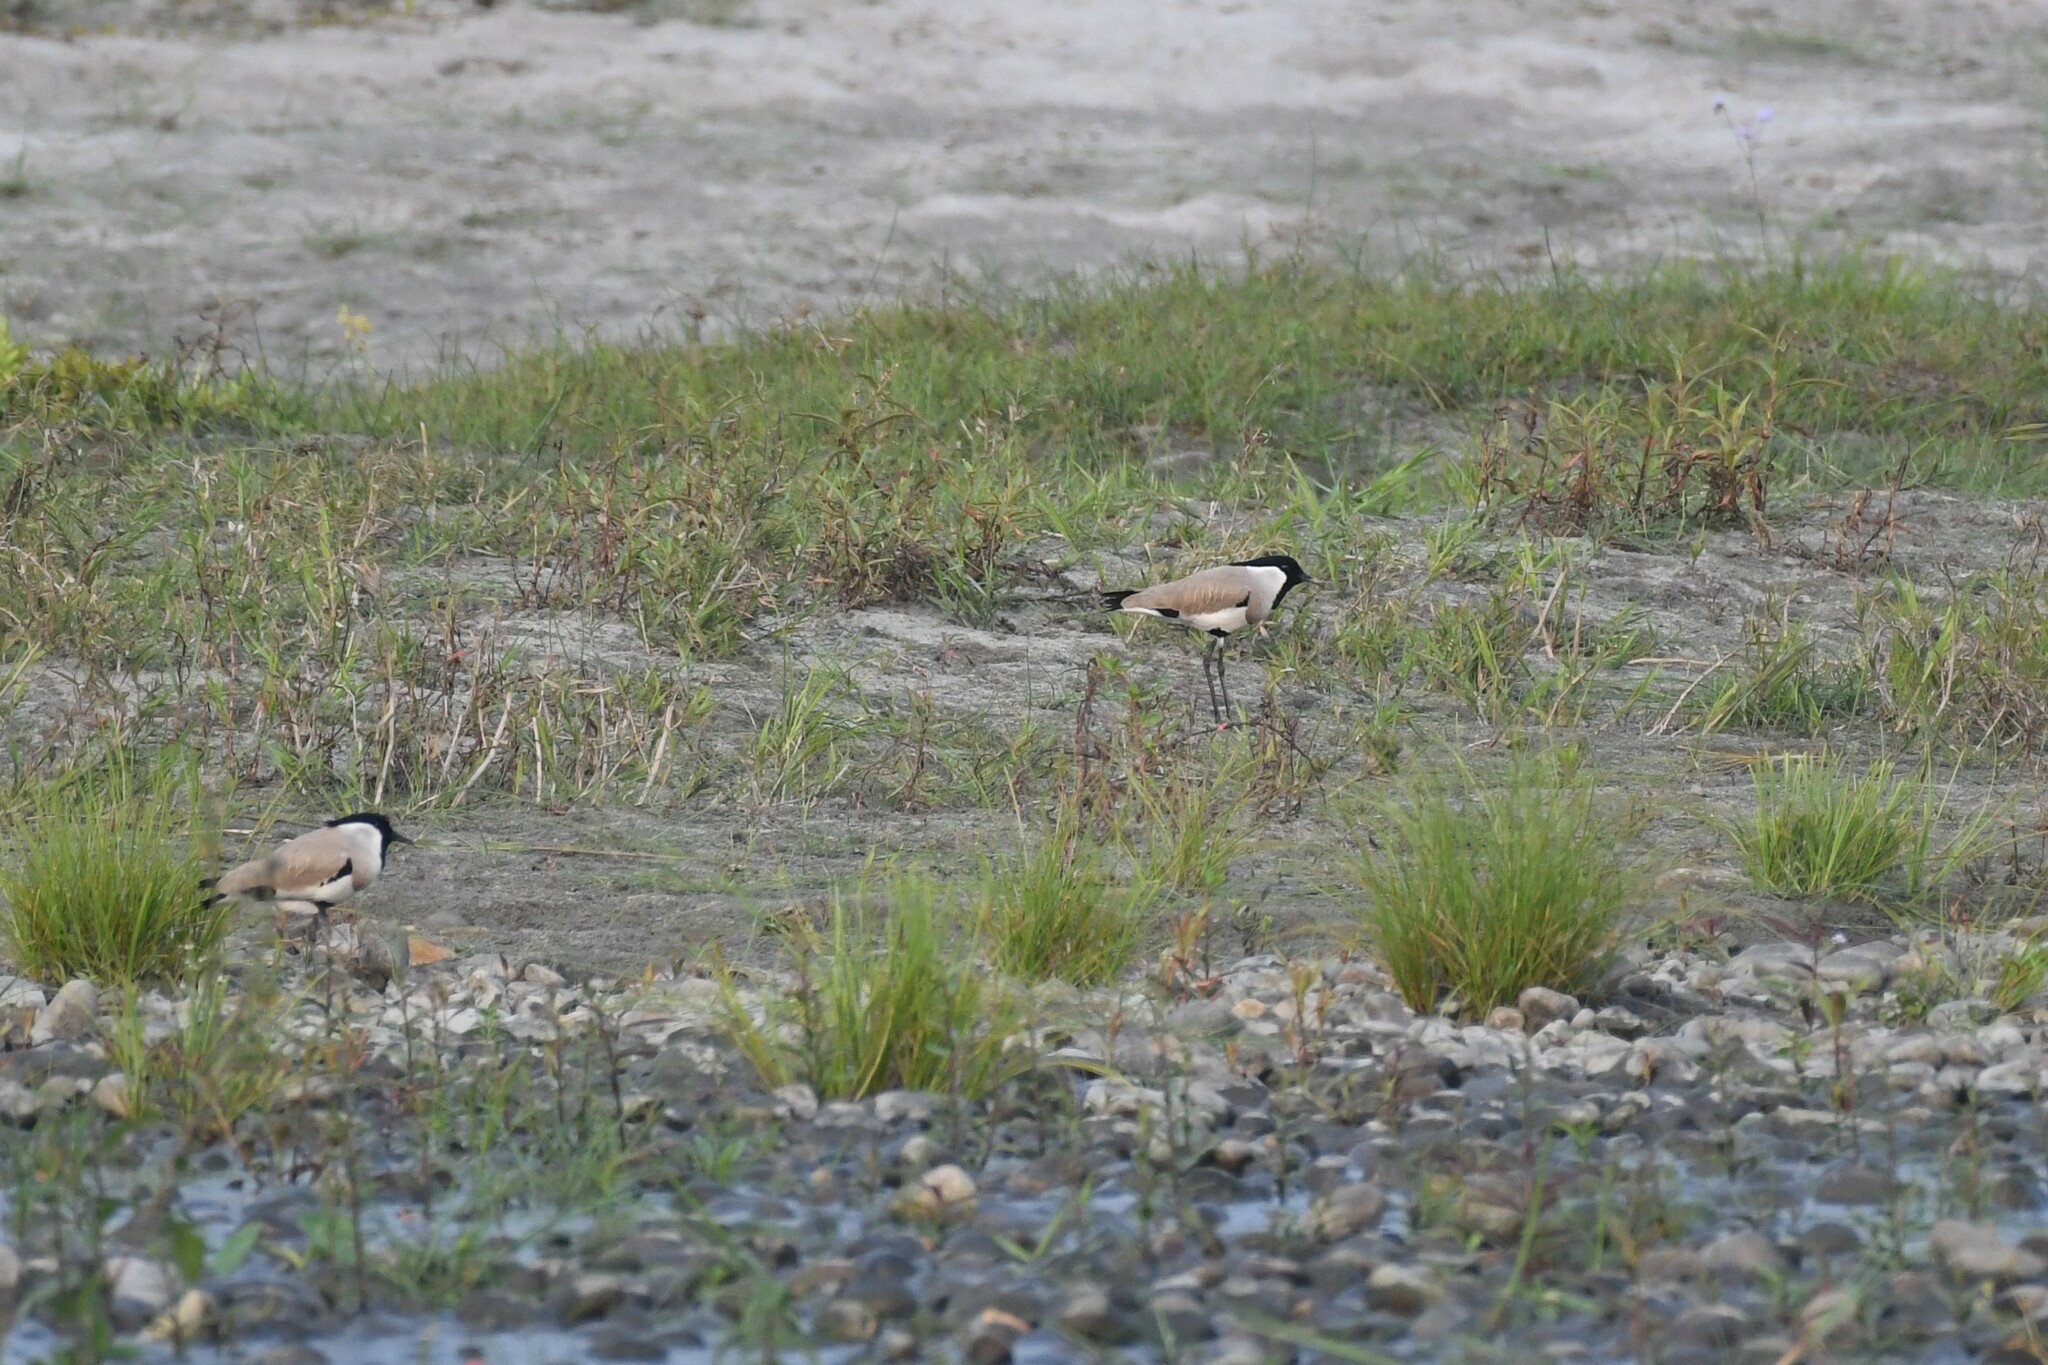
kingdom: Animalia
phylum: Chordata
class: Aves
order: Charadriiformes
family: Charadriidae
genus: Vanellus
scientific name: Vanellus duvaucelii
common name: River lapwing
